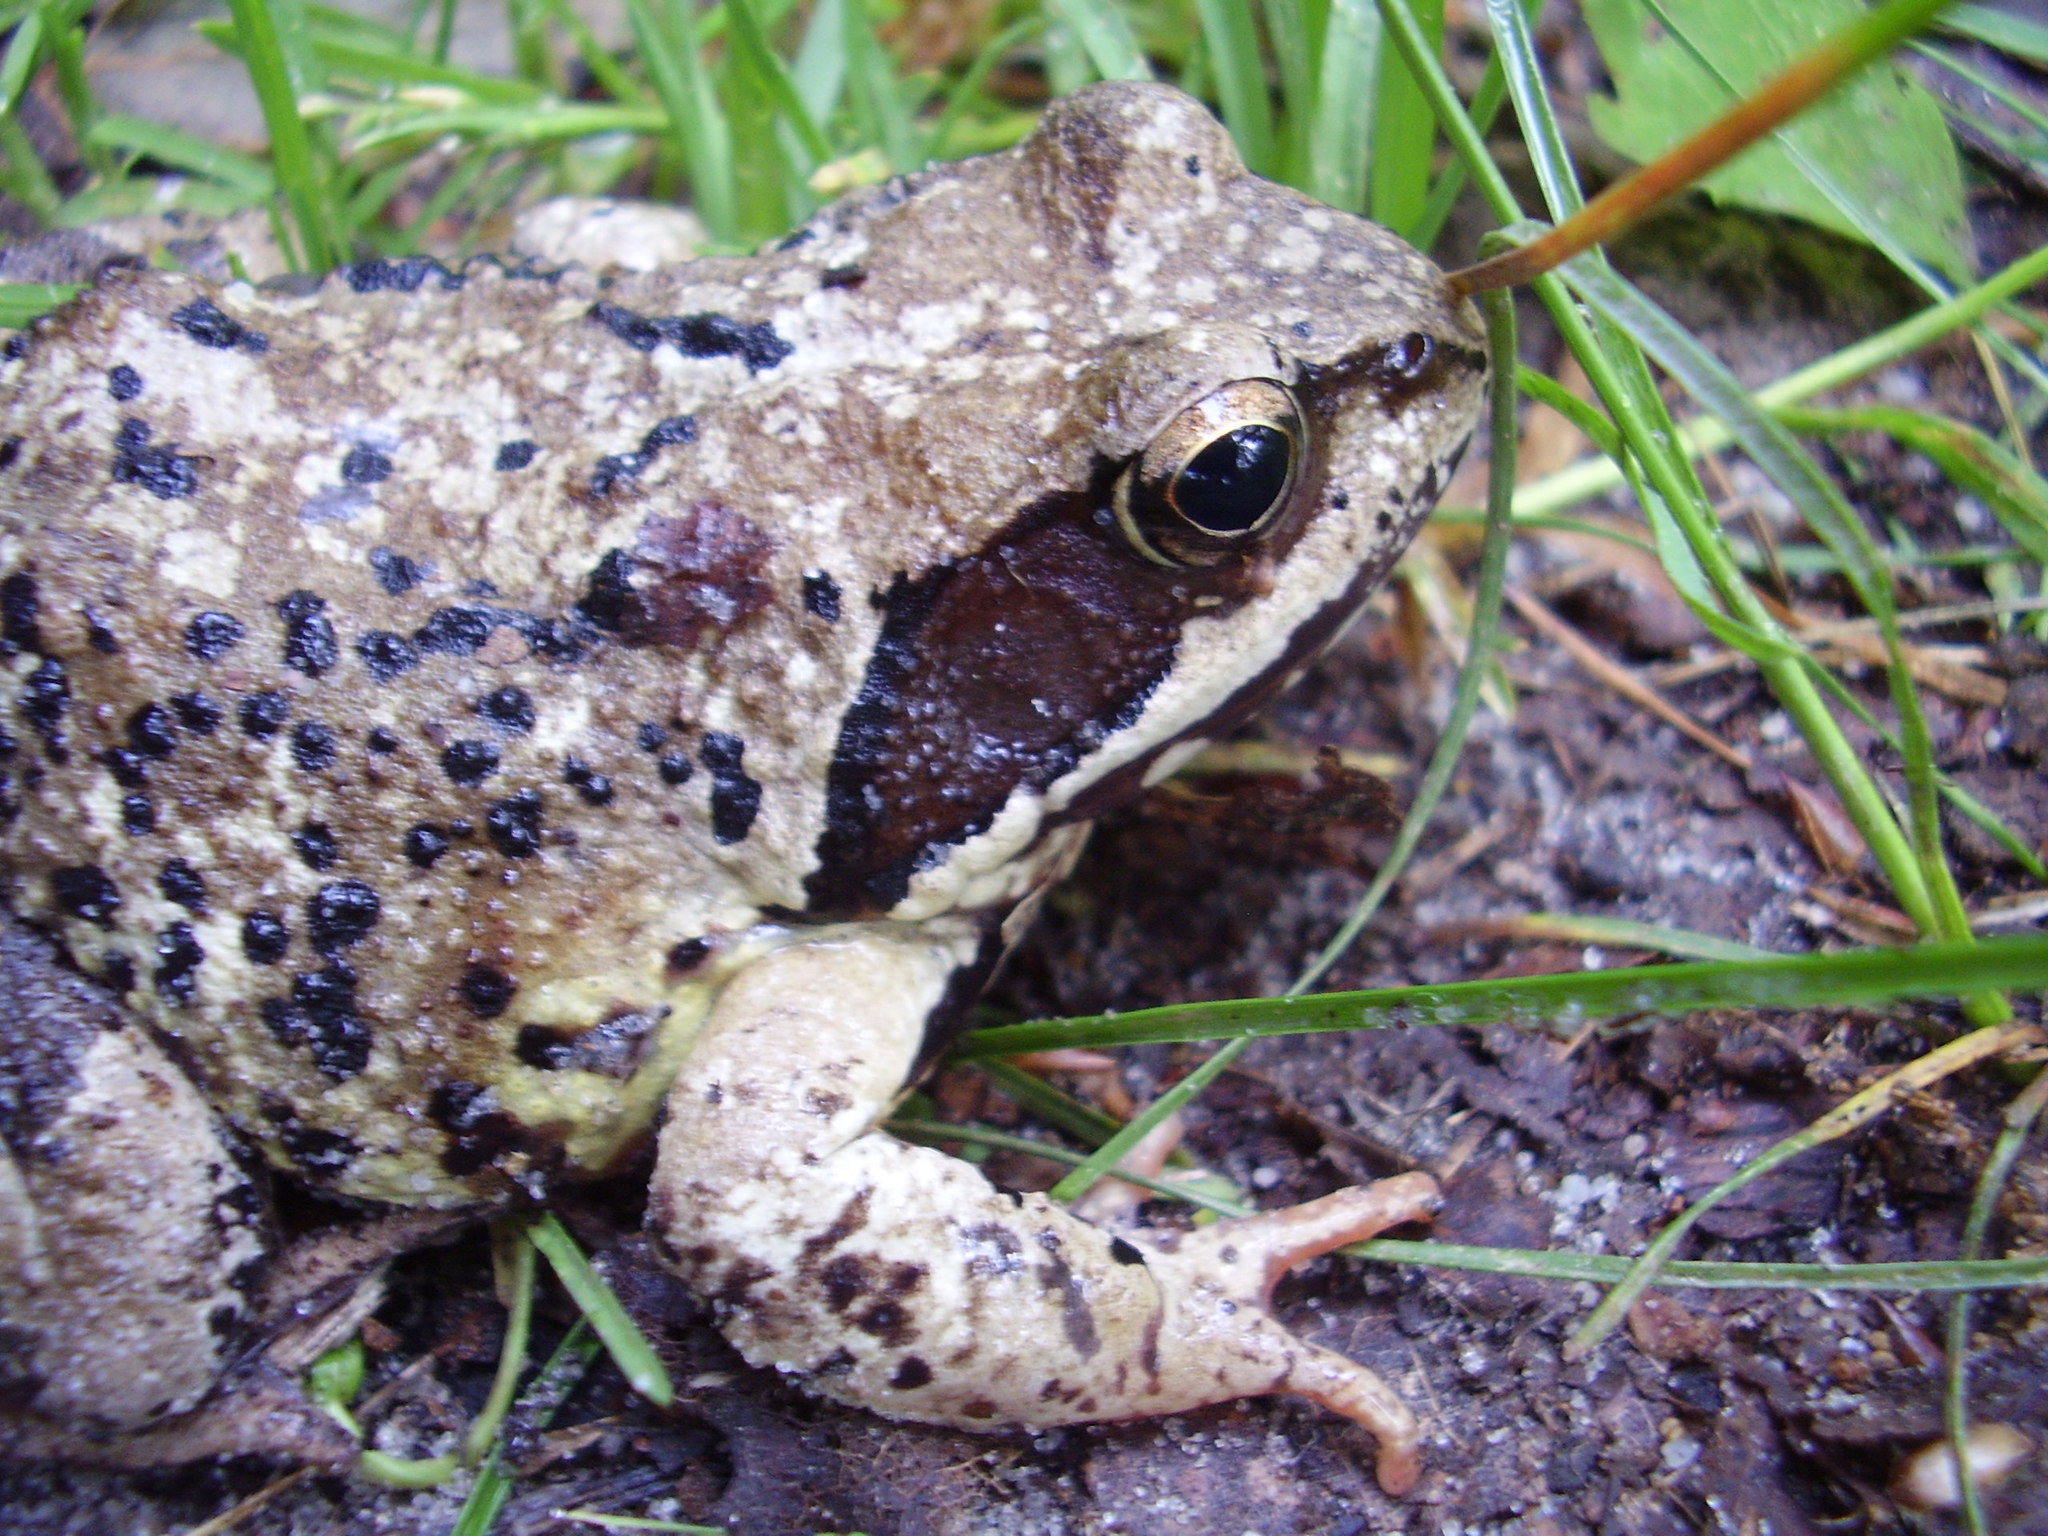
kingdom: Animalia
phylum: Chordata
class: Amphibia
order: Anura
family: Ranidae
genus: Rana
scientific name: Rana temporaria
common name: Common frog
